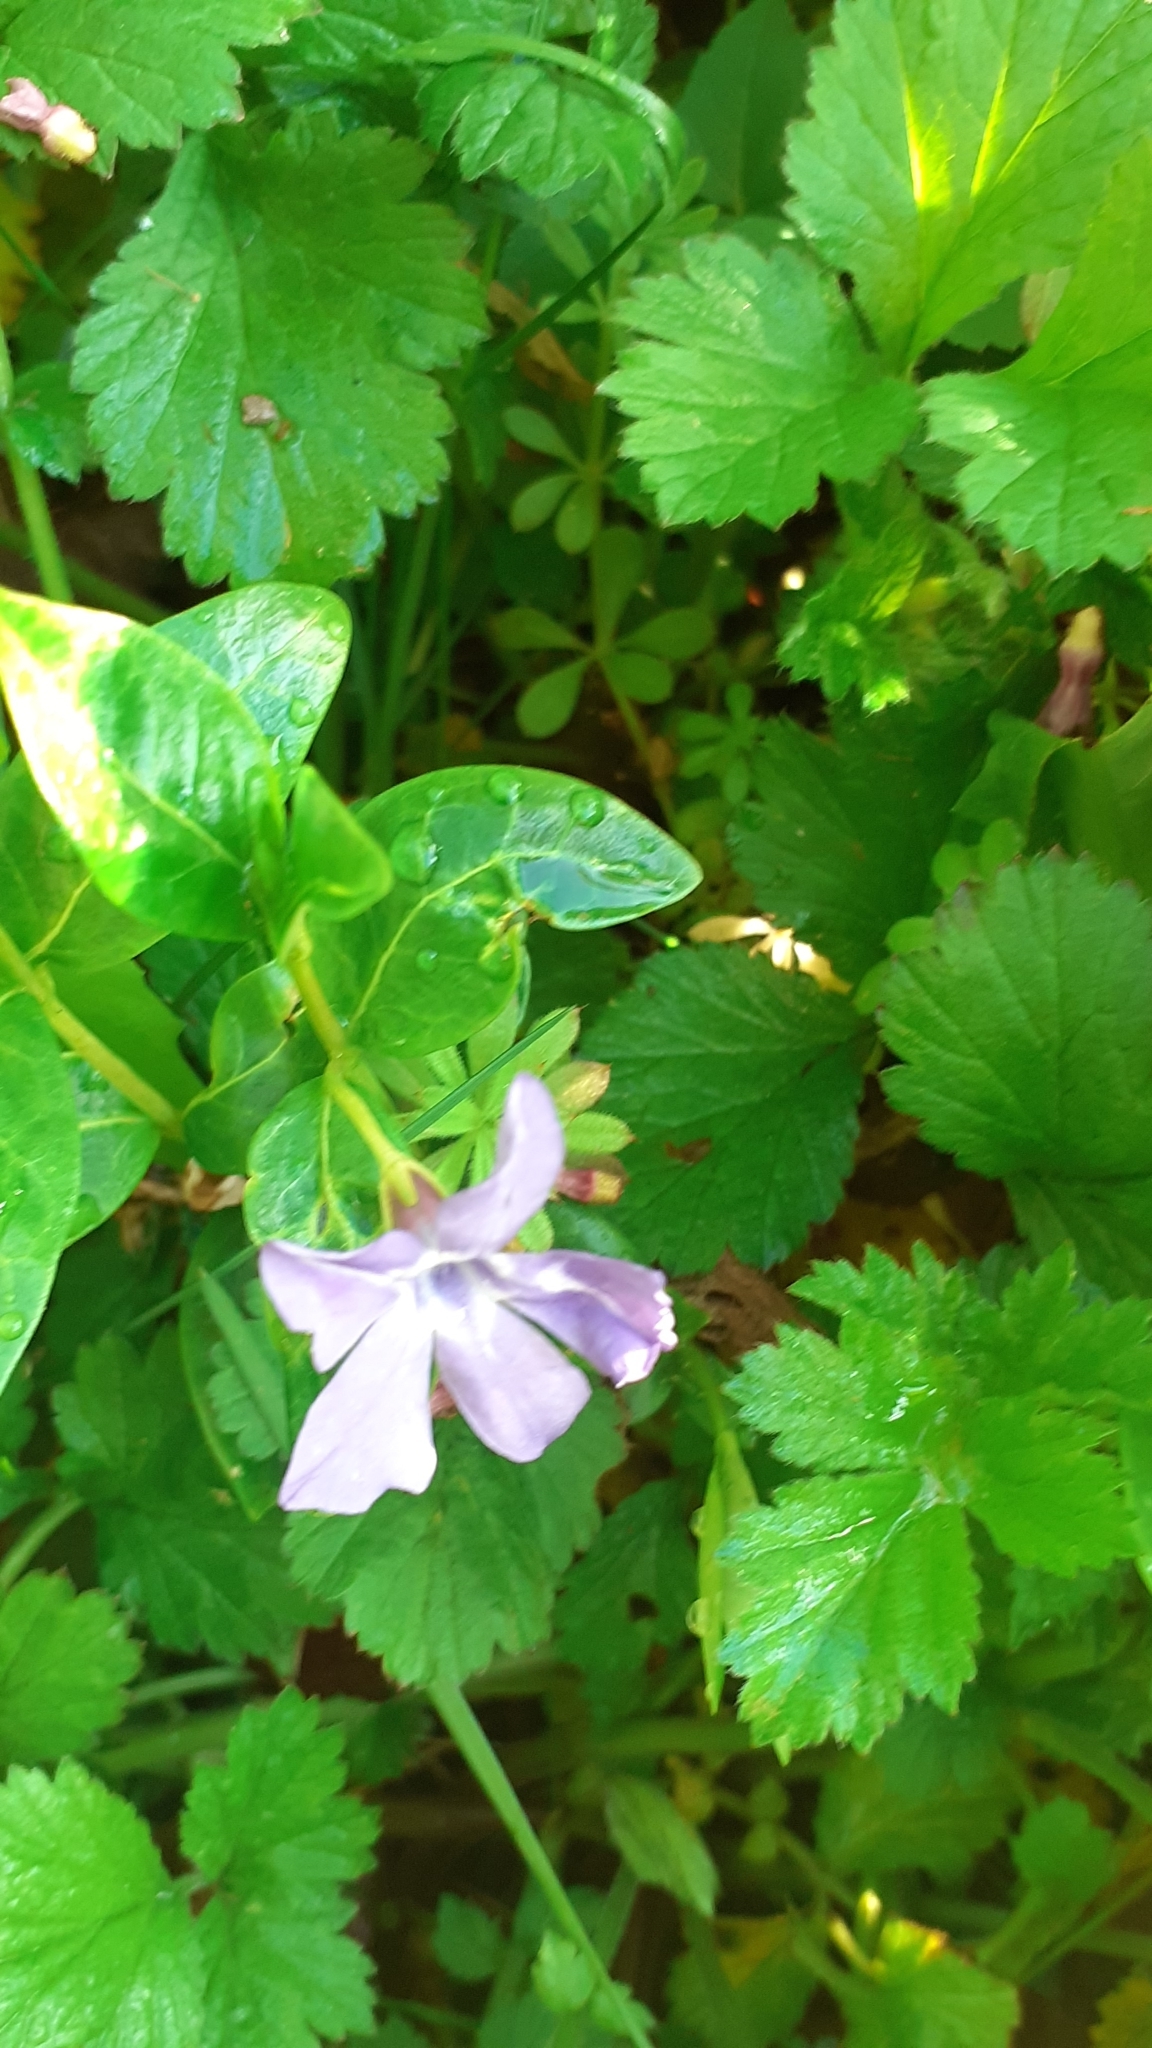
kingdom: Plantae
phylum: Tracheophyta
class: Magnoliopsida
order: Gentianales
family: Apocynaceae
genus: Vinca
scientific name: Vinca minor
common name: Lesser periwinkle
